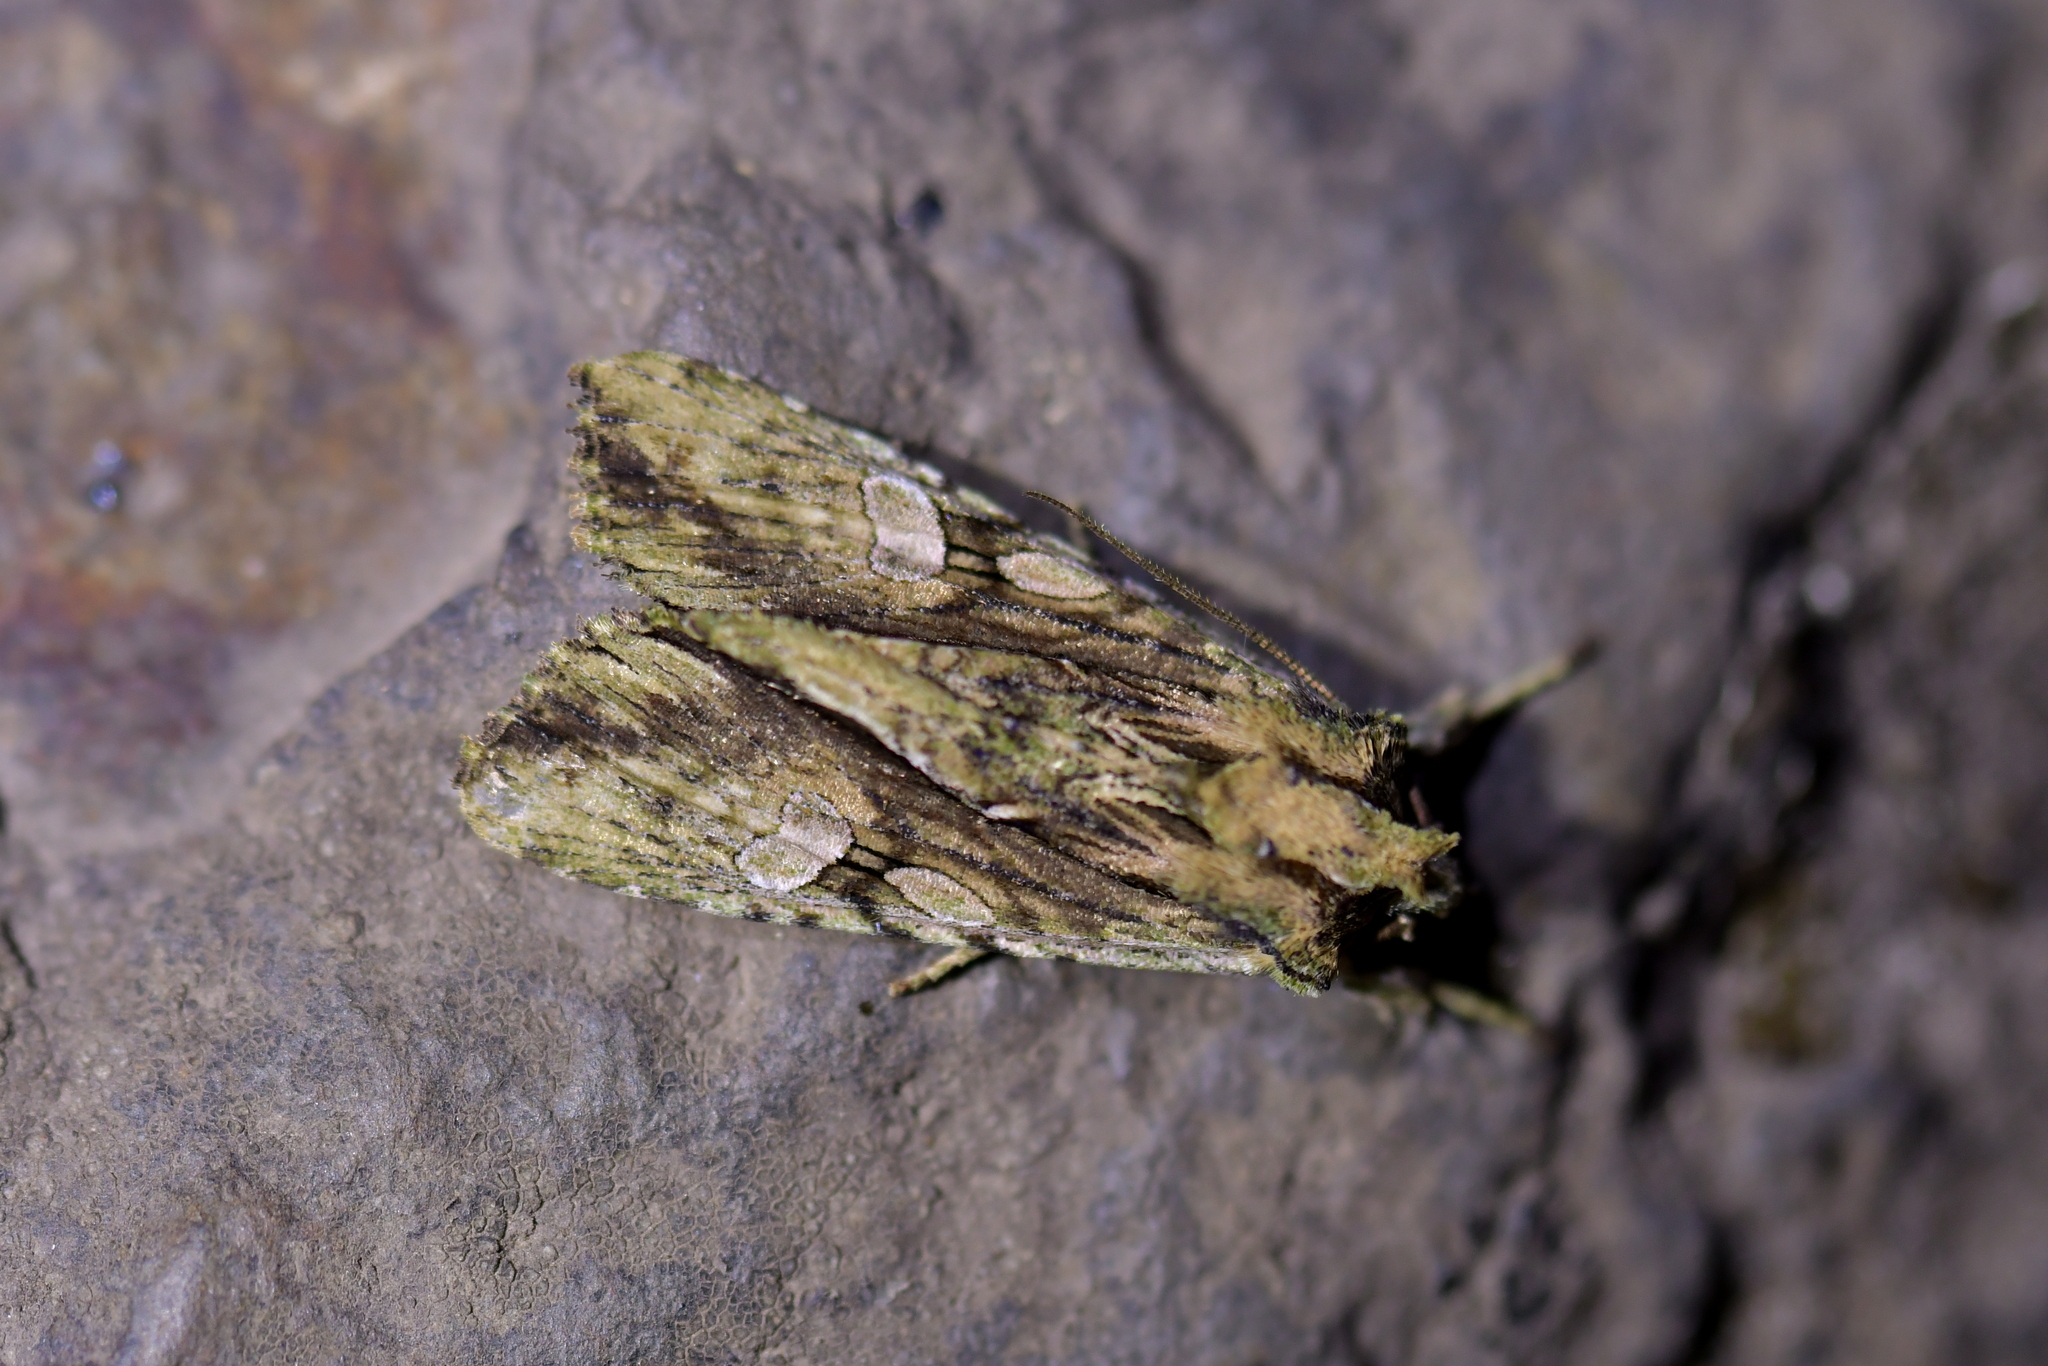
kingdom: Animalia
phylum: Arthropoda
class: Insecta
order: Lepidoptera
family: Noctuidae
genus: Meterana
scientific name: Meterana decorata
